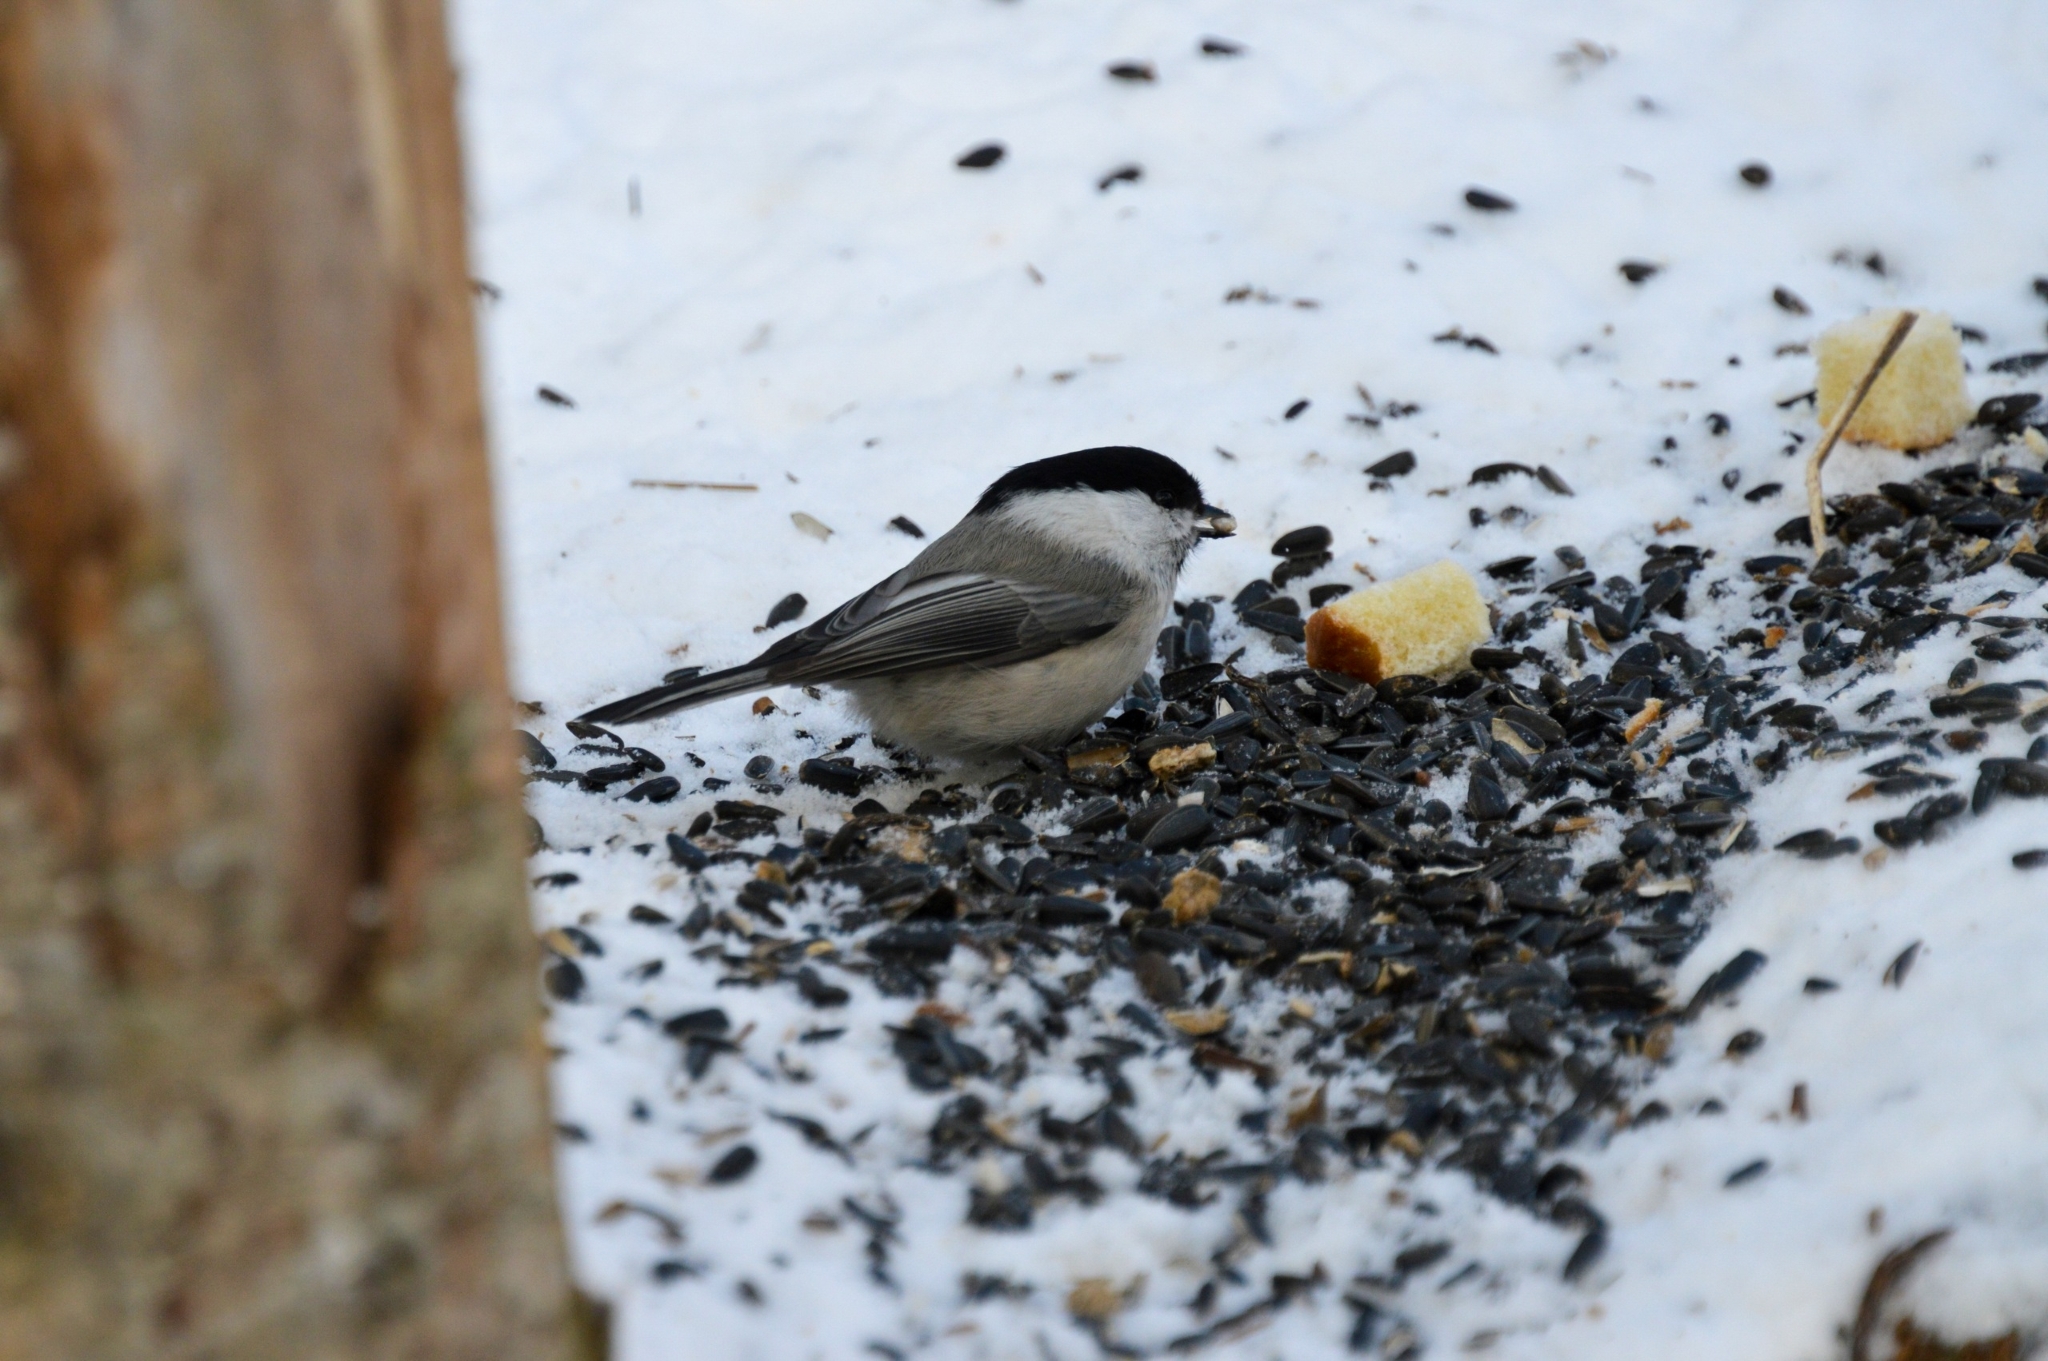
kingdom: Animalia
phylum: Chordata
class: Aves
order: Passeriformes
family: Paridae
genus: Poecile
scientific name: Poecile montanus
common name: Willow tit
